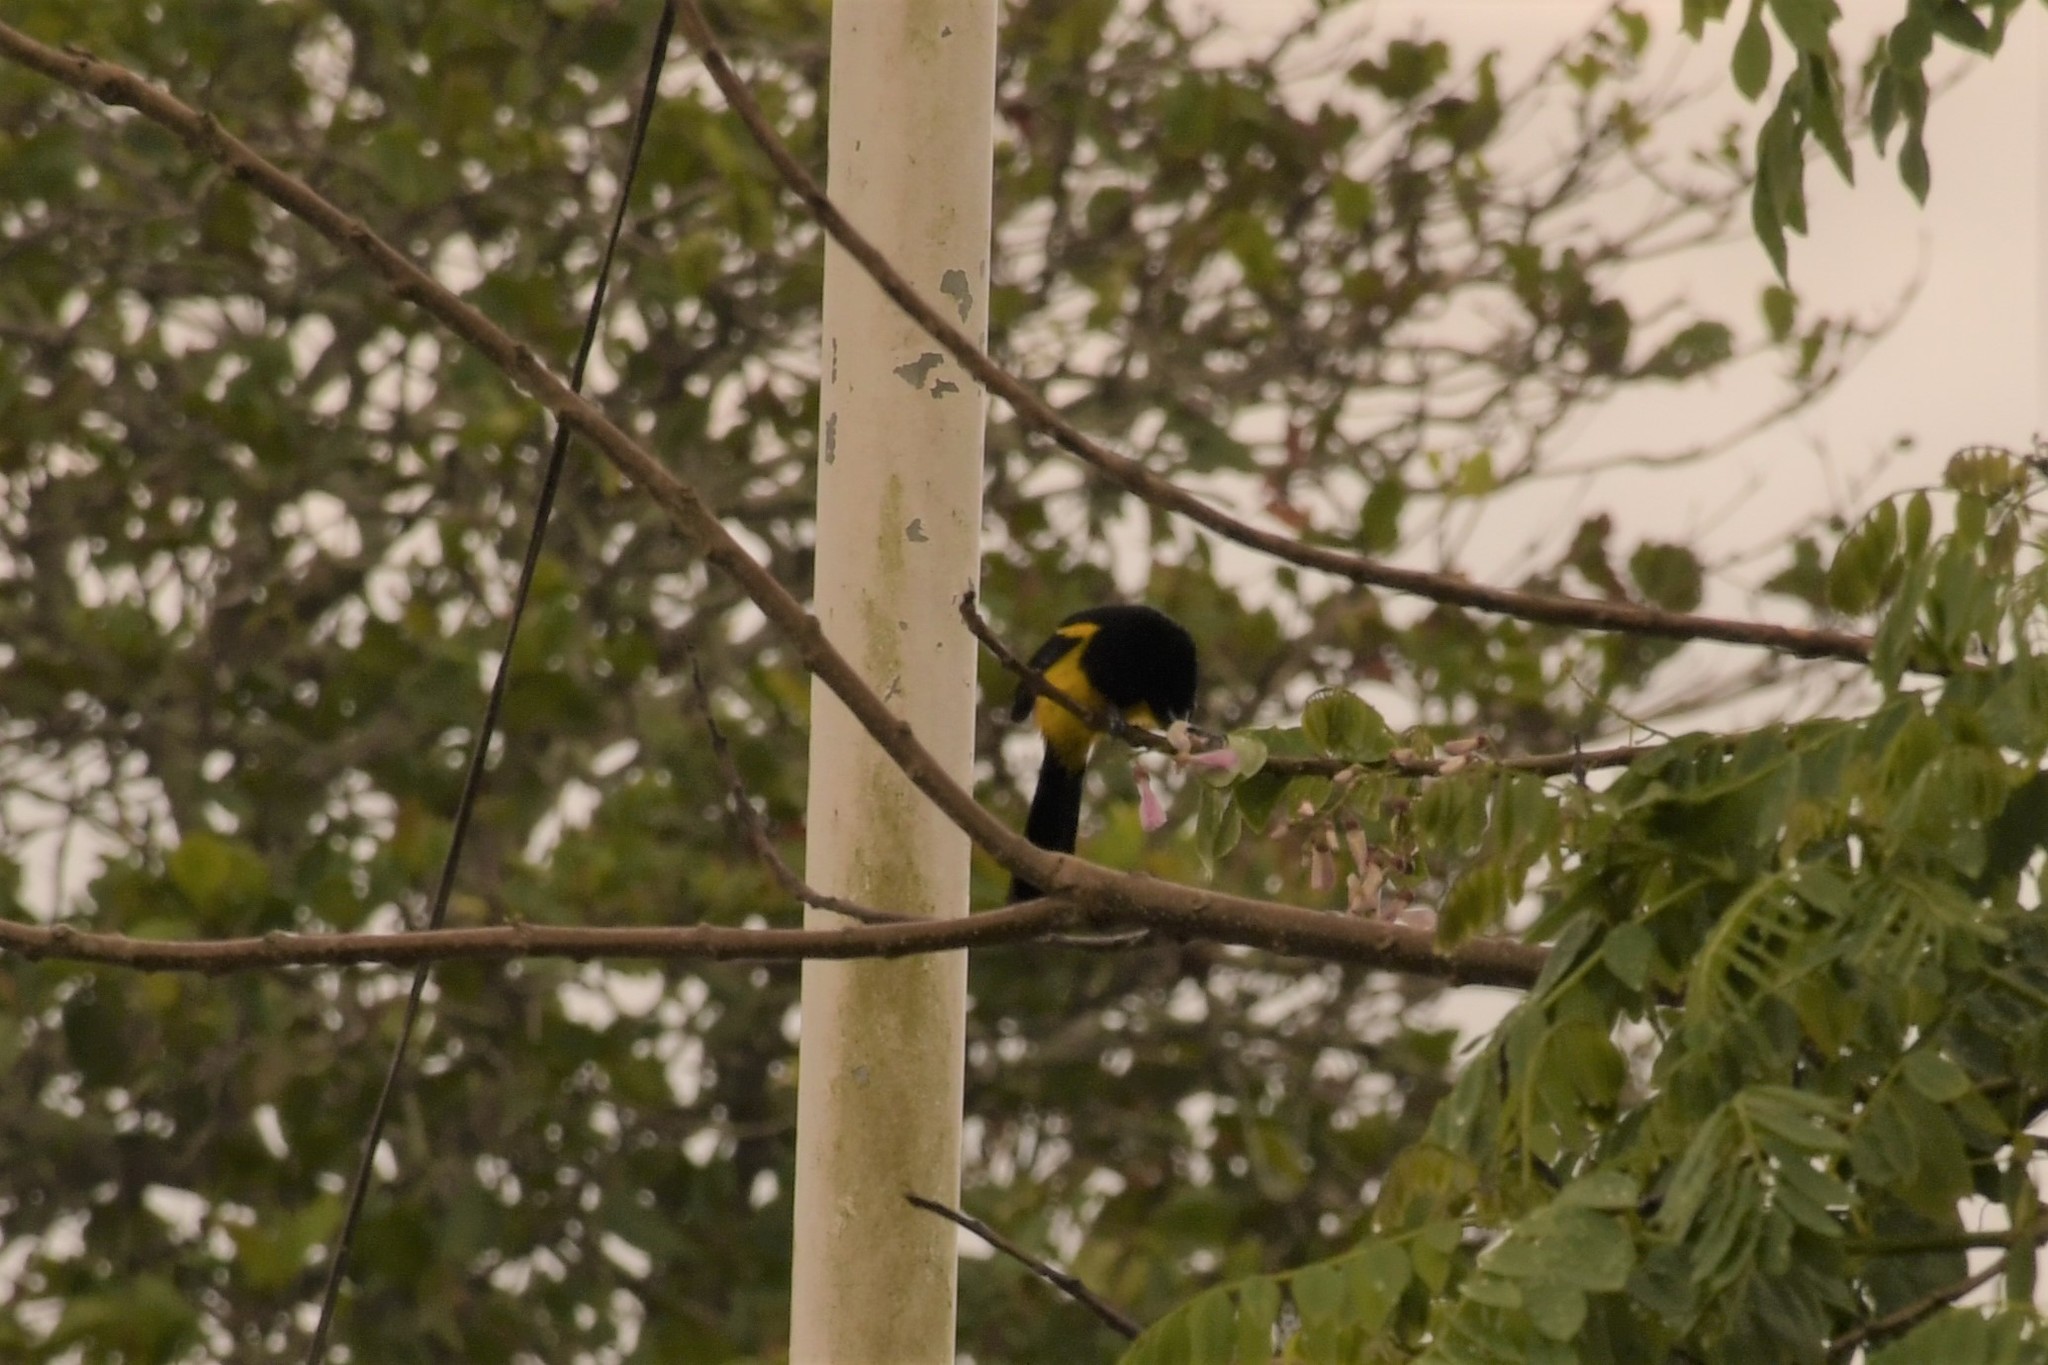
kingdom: Animalia
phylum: Chordata
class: Aves
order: Passeriformes
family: Icteridae
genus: Icterus
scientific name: Icterus prosthemelas
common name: Black-cowled oriole
